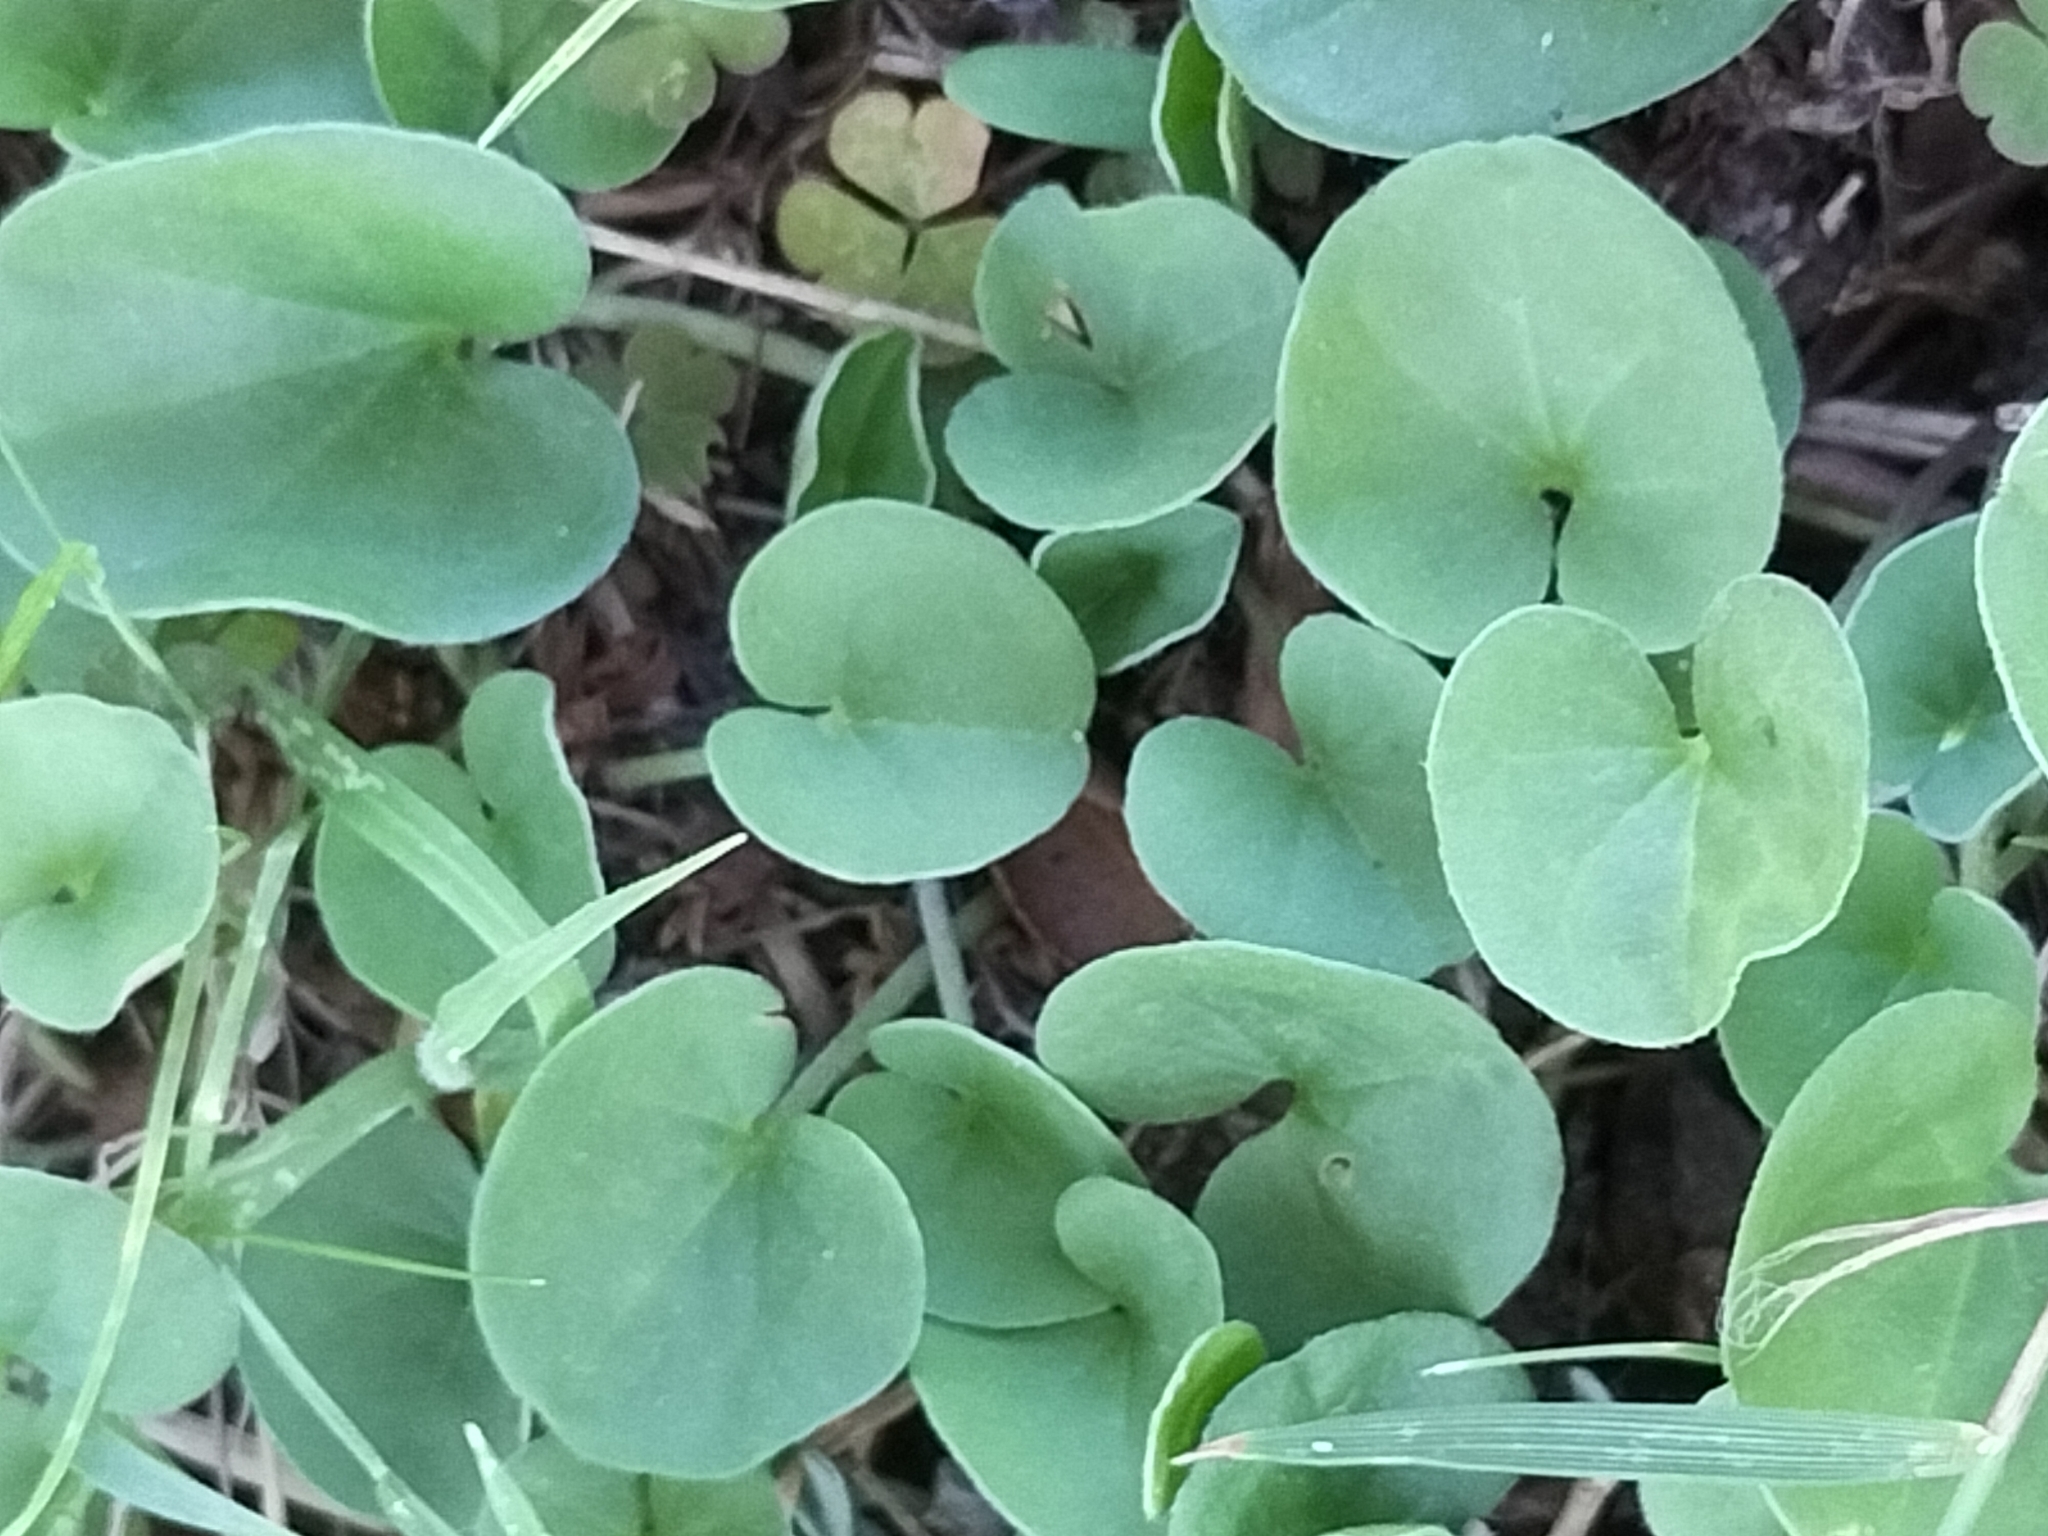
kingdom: Plantae
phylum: Tracheophyta
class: Magnoliopsida
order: Solanales
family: Convolvulaceae
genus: Dichondra
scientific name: Dichondra repens
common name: Kidneyweed
